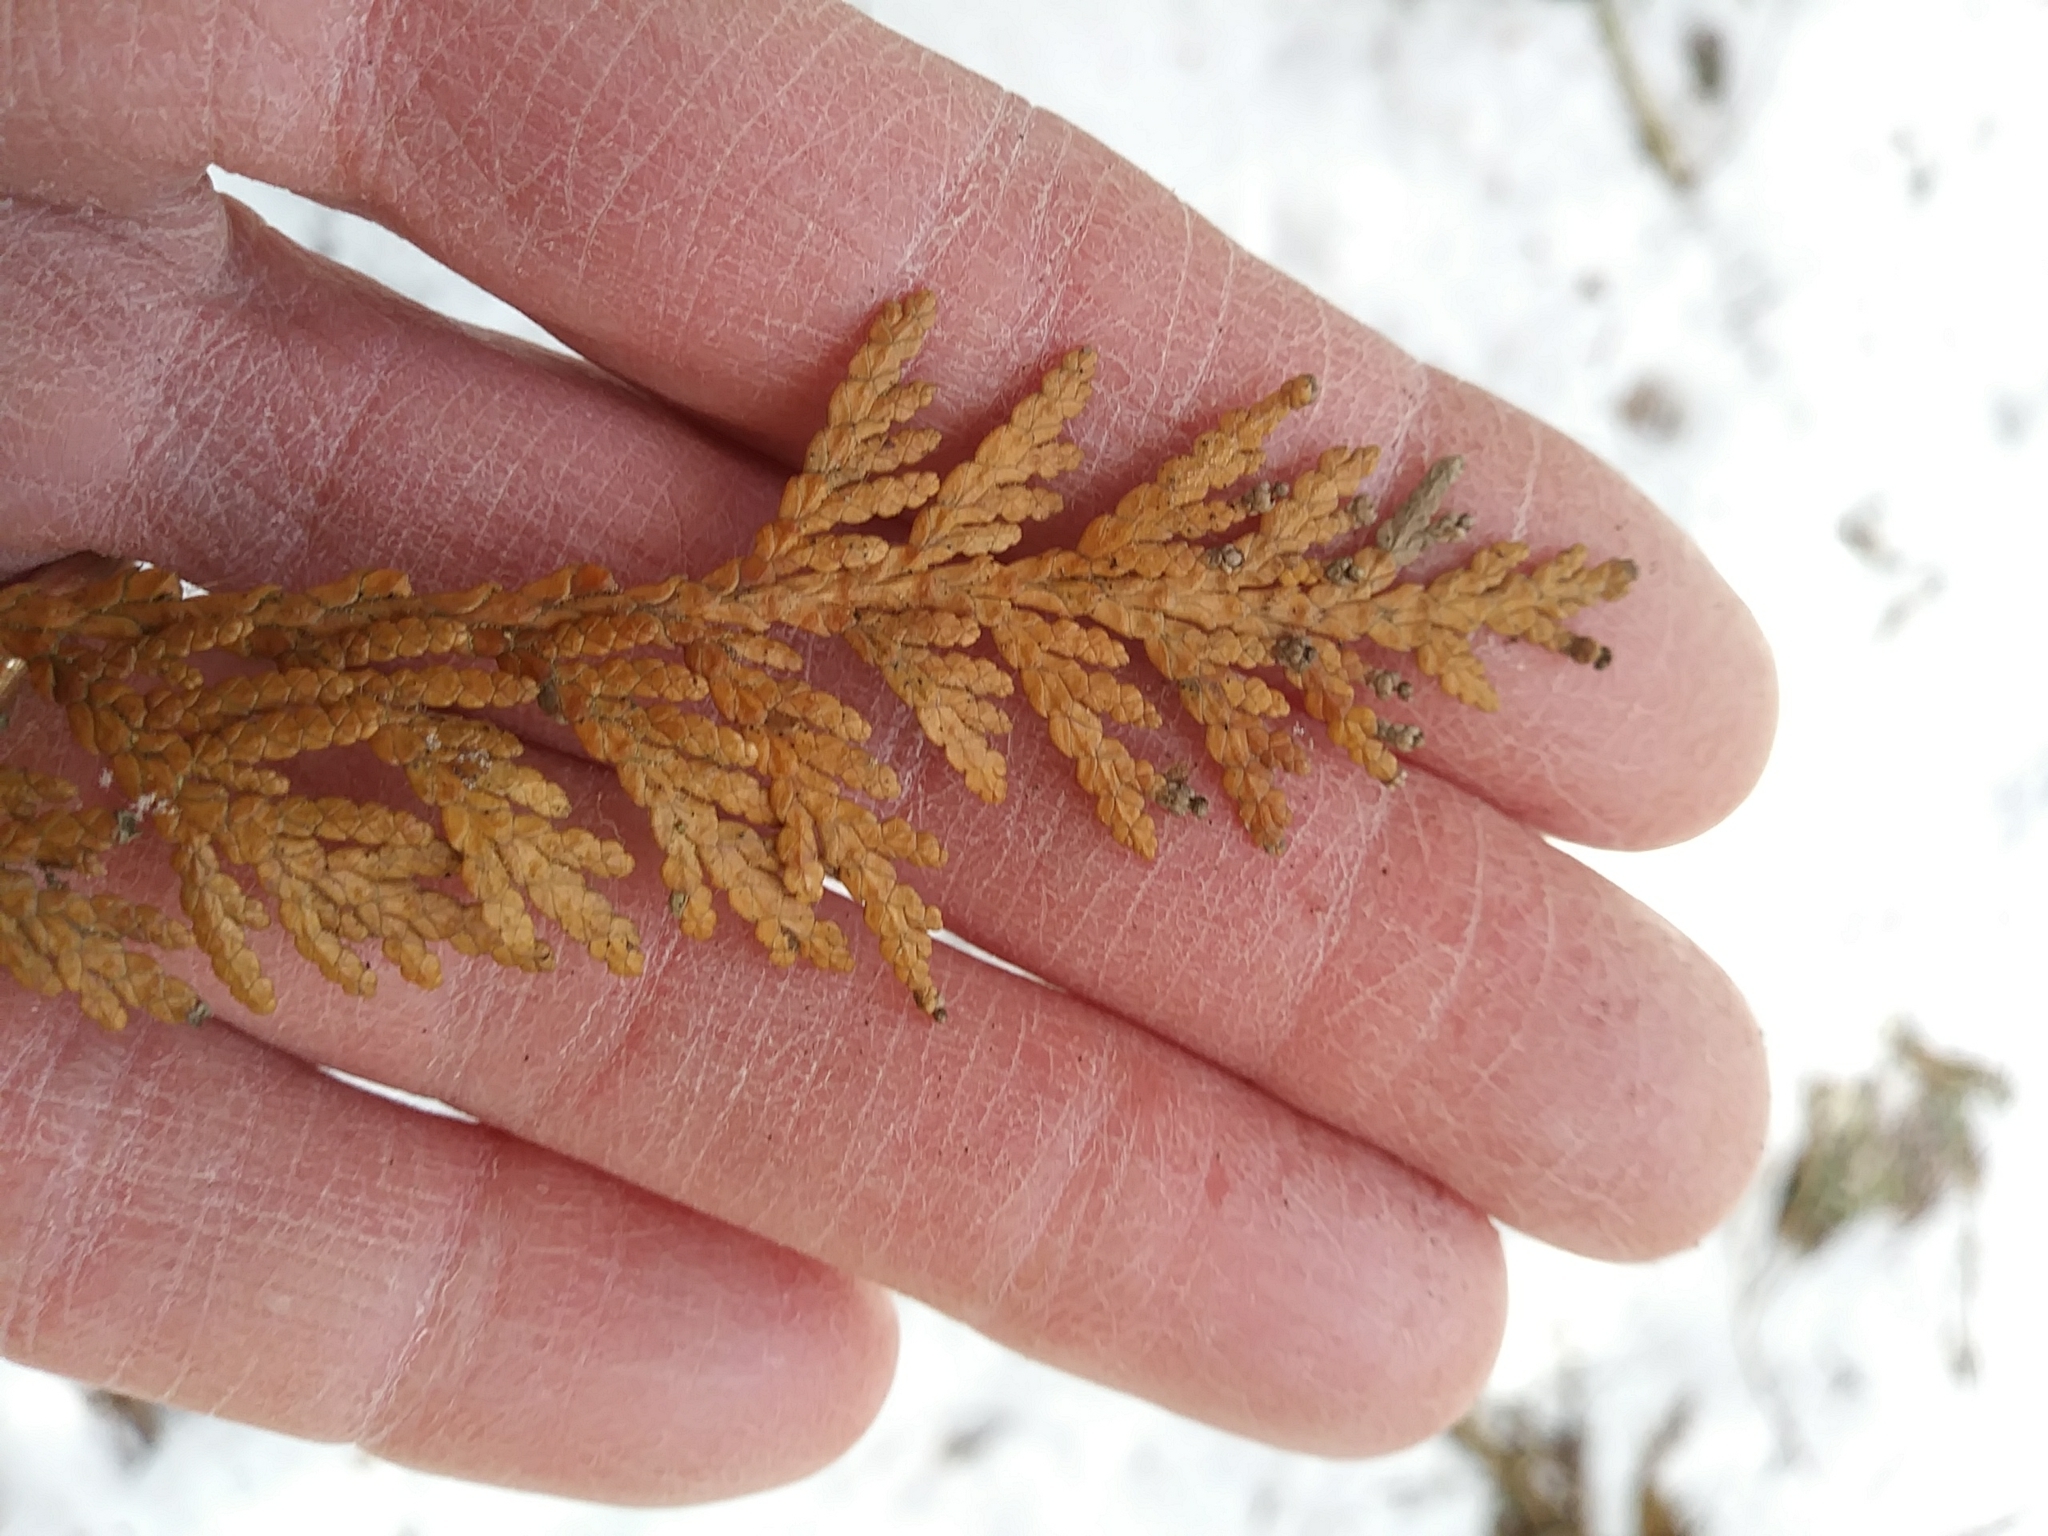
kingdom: Plantae
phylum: Tracheophyta
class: Pinopsida
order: Pinales
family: Cupressaceae
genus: Thuja
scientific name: Thuja occidentalis
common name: Northern white-cedar
